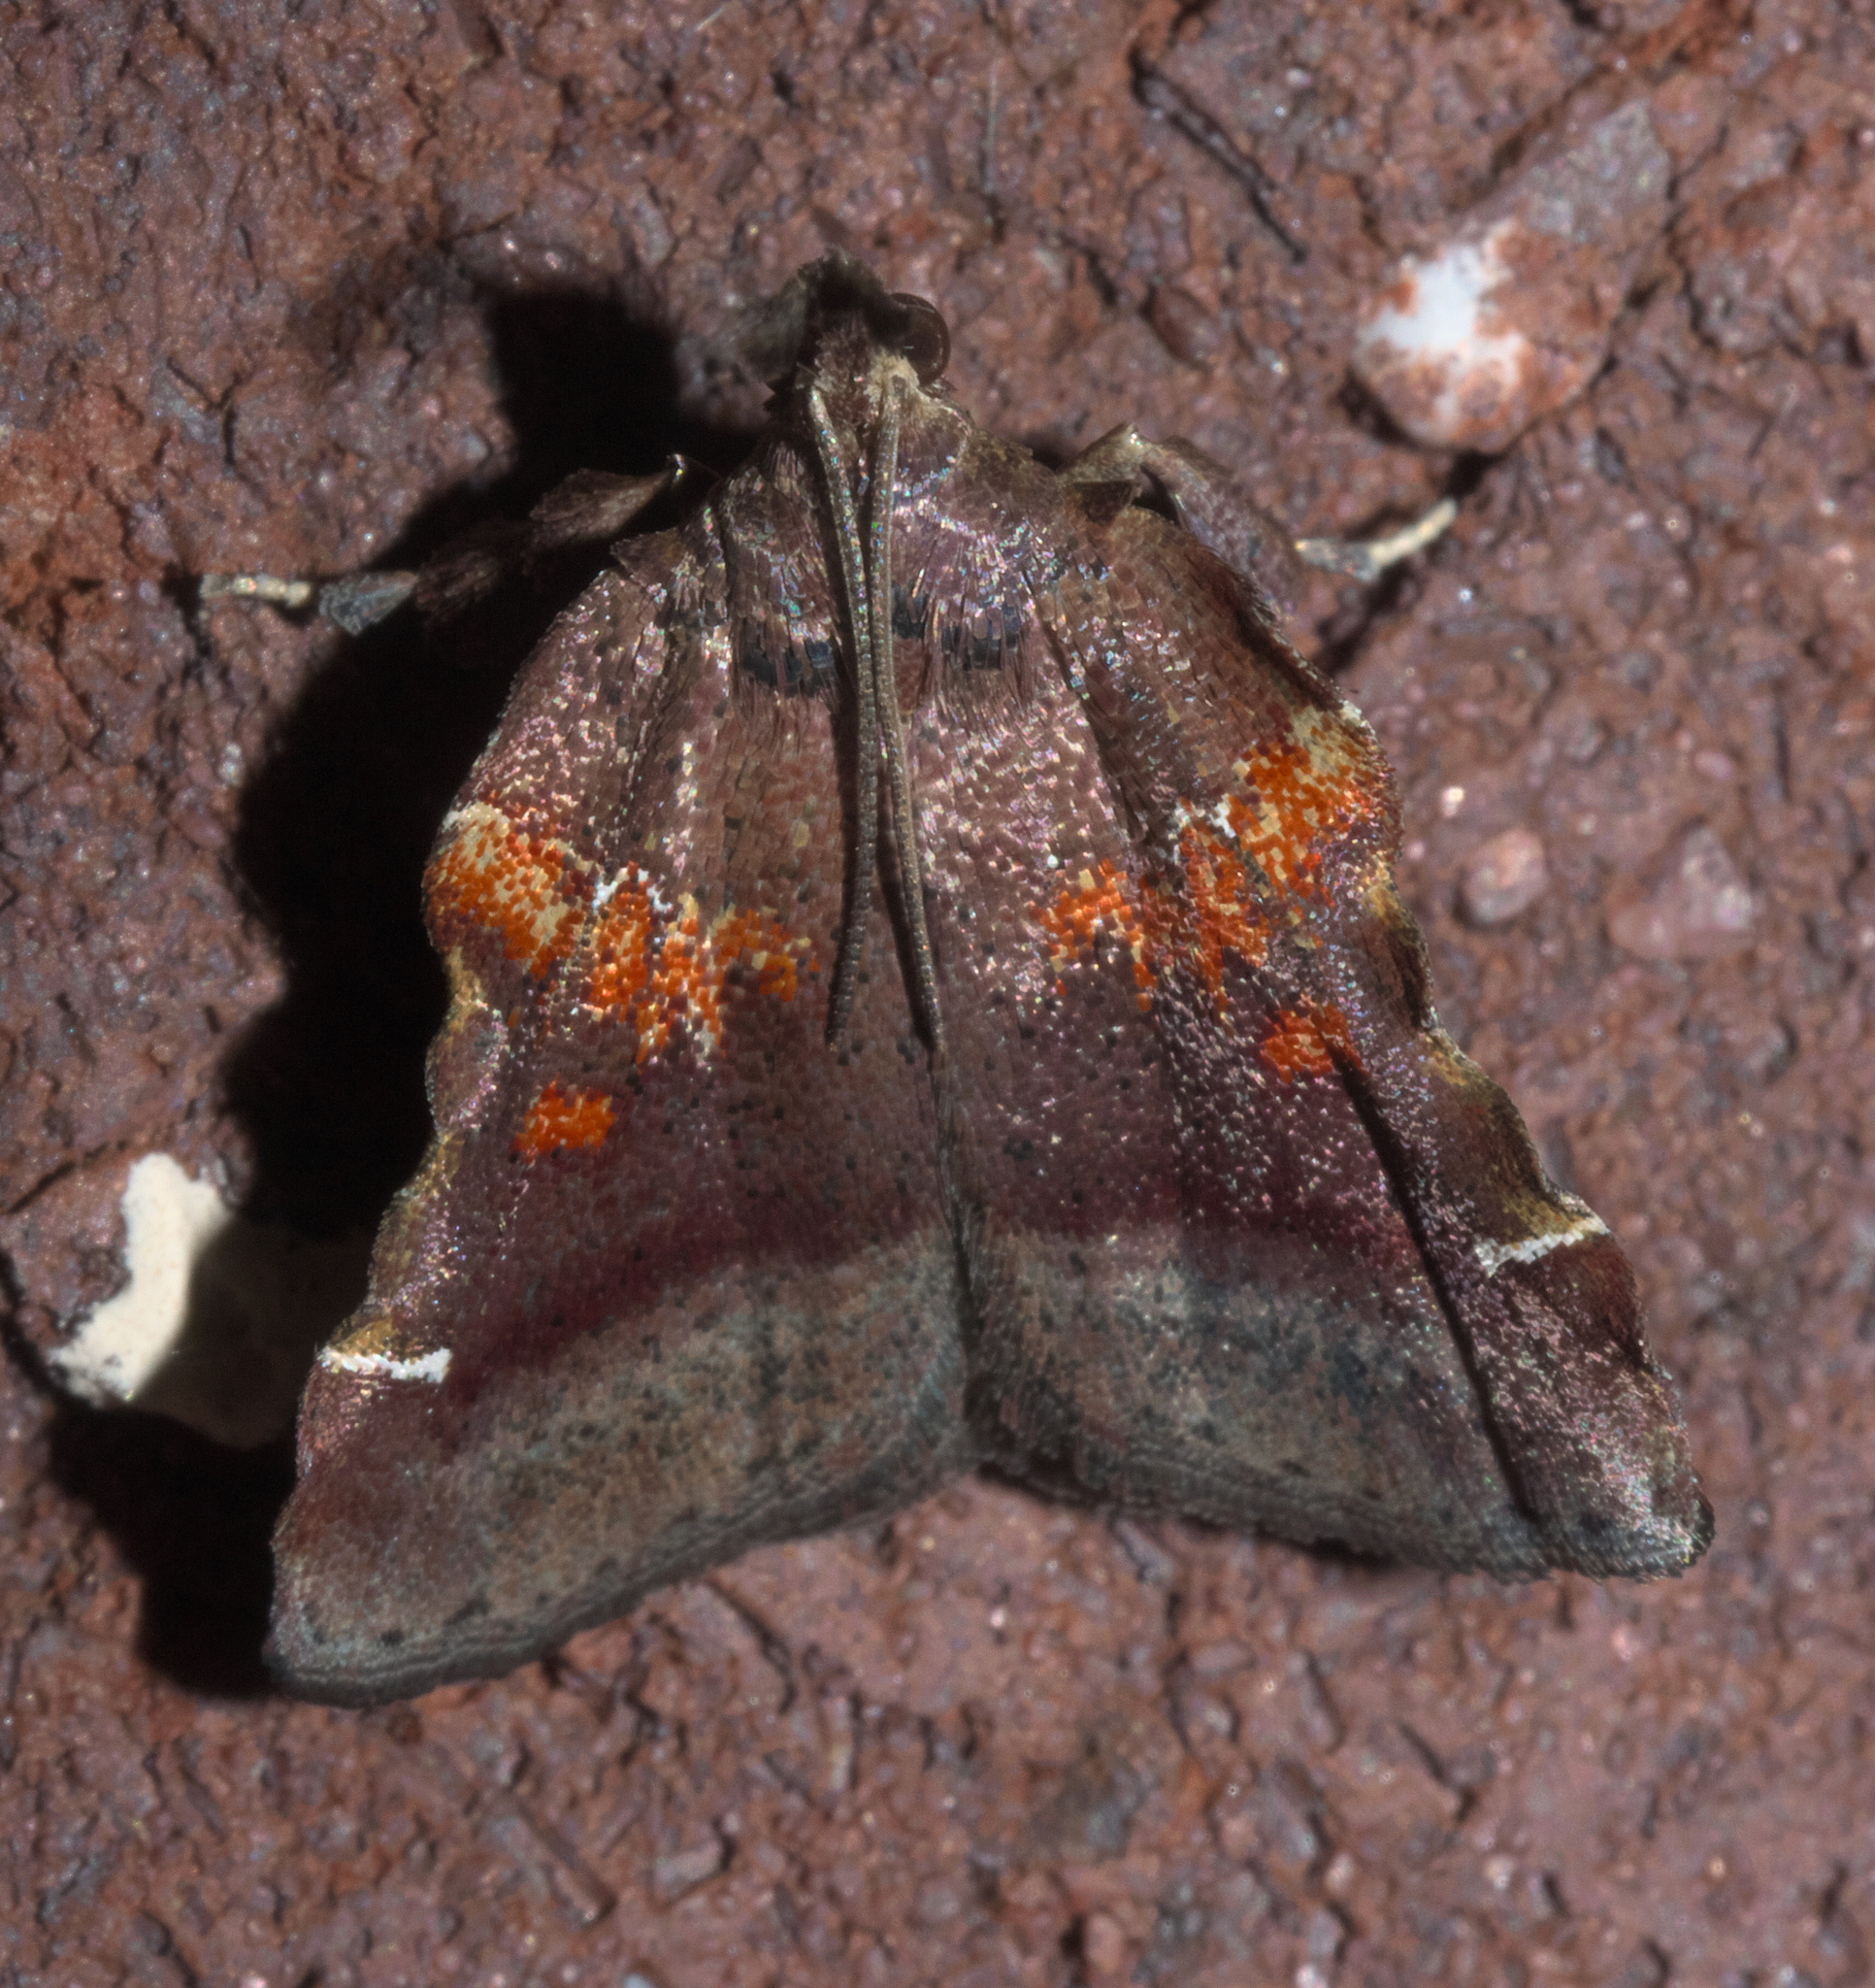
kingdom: Animalia
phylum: Arthropoda
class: Insecta
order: Lepidoptera
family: Pyralidae
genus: Clydonopteron
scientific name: Clydonopteron sacculana
